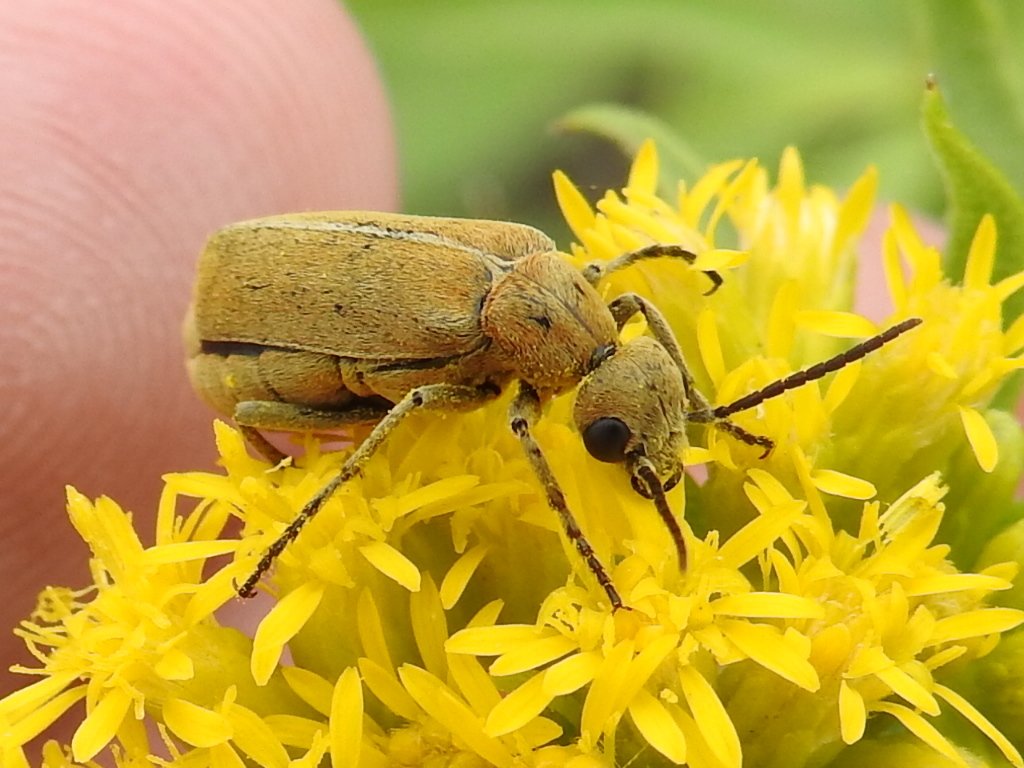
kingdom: Animalia
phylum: Arthropoda
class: Insecta
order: Coleoptera
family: Meloidae
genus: Epicauta
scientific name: Epicauta callosa
